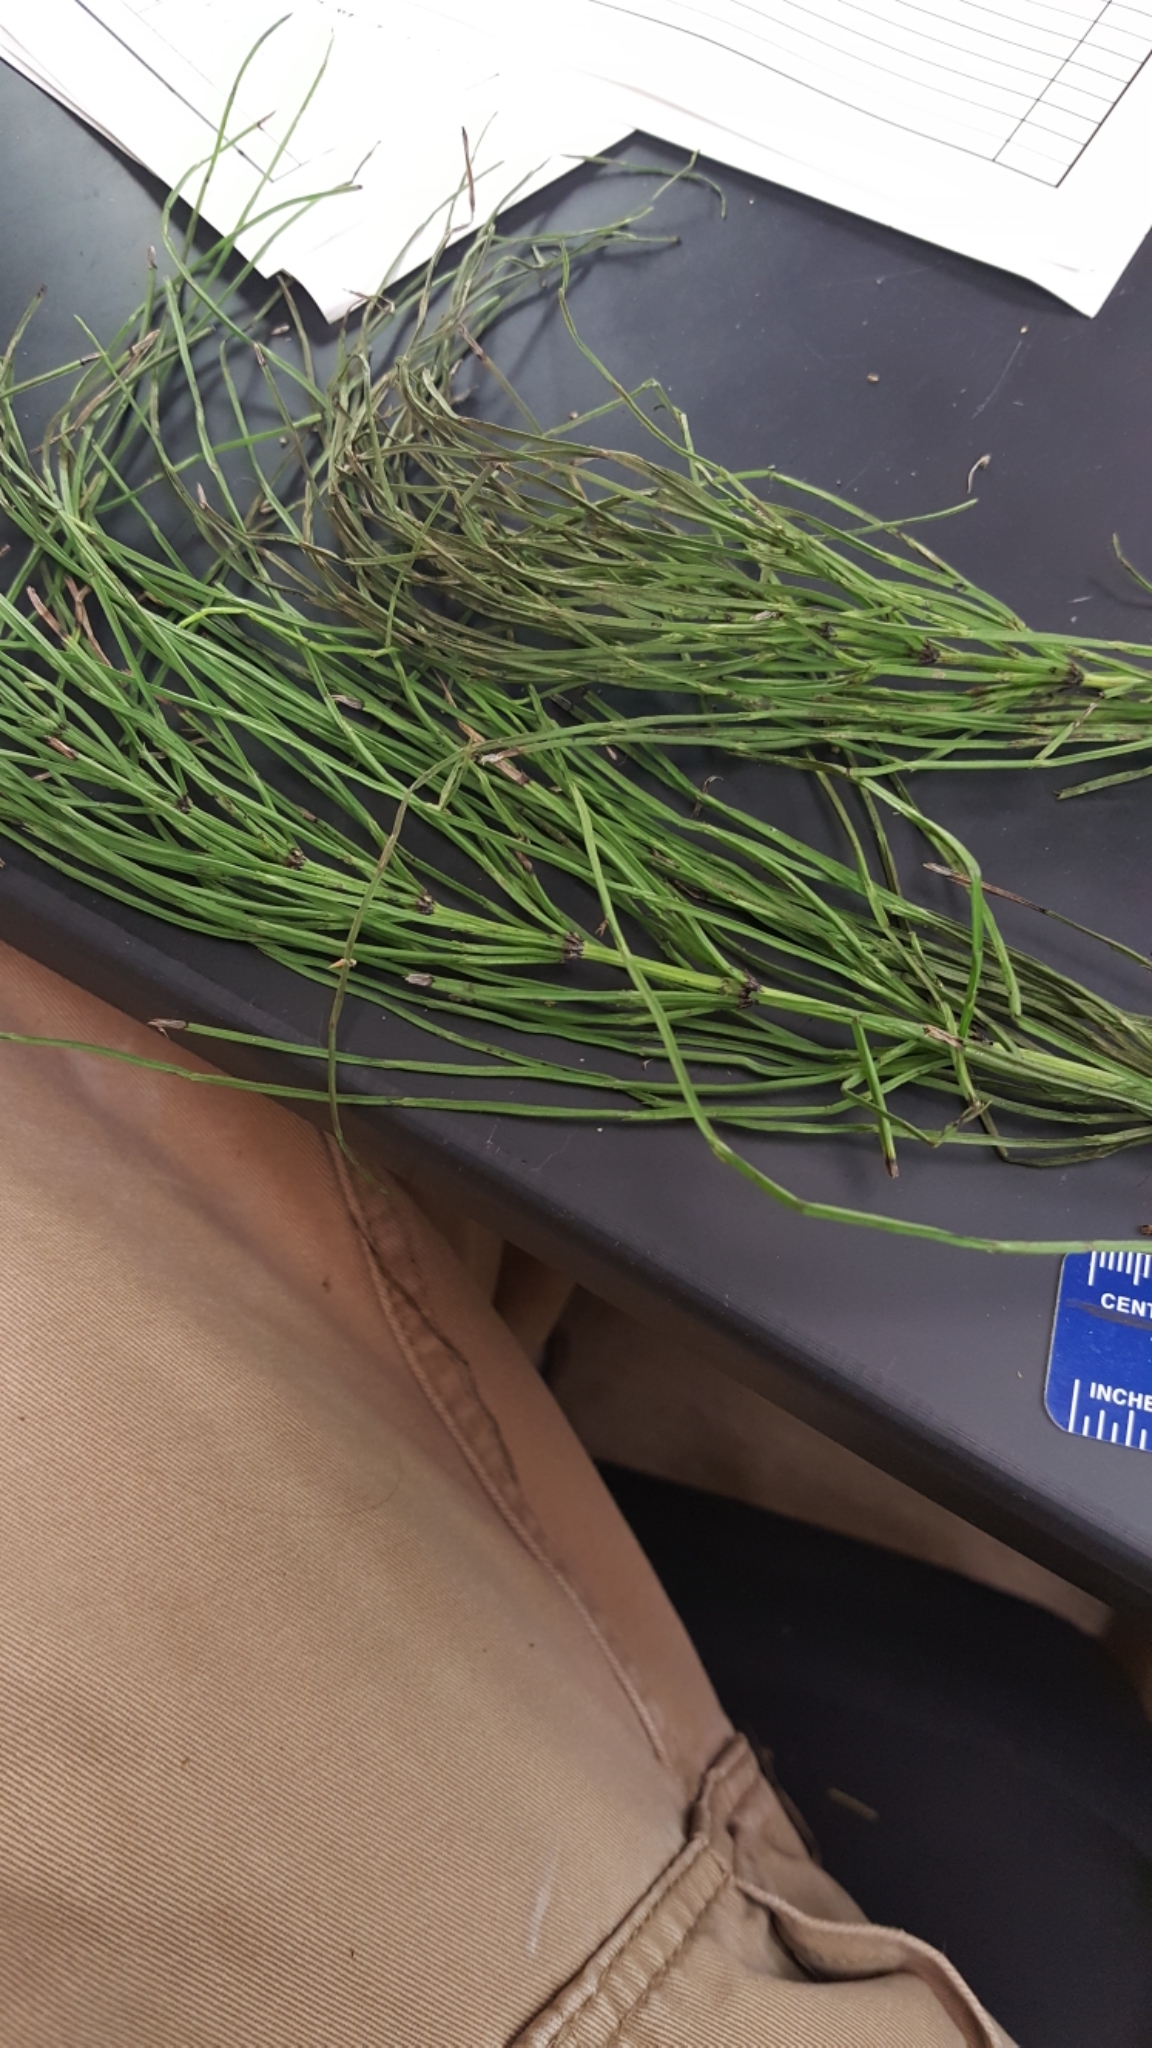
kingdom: Plantae
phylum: Tracheophyta
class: Polypodiopsida
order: Equisetales
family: Equisetaceae
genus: Equisetum
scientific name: Equisetum arvense
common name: Field horsetail
